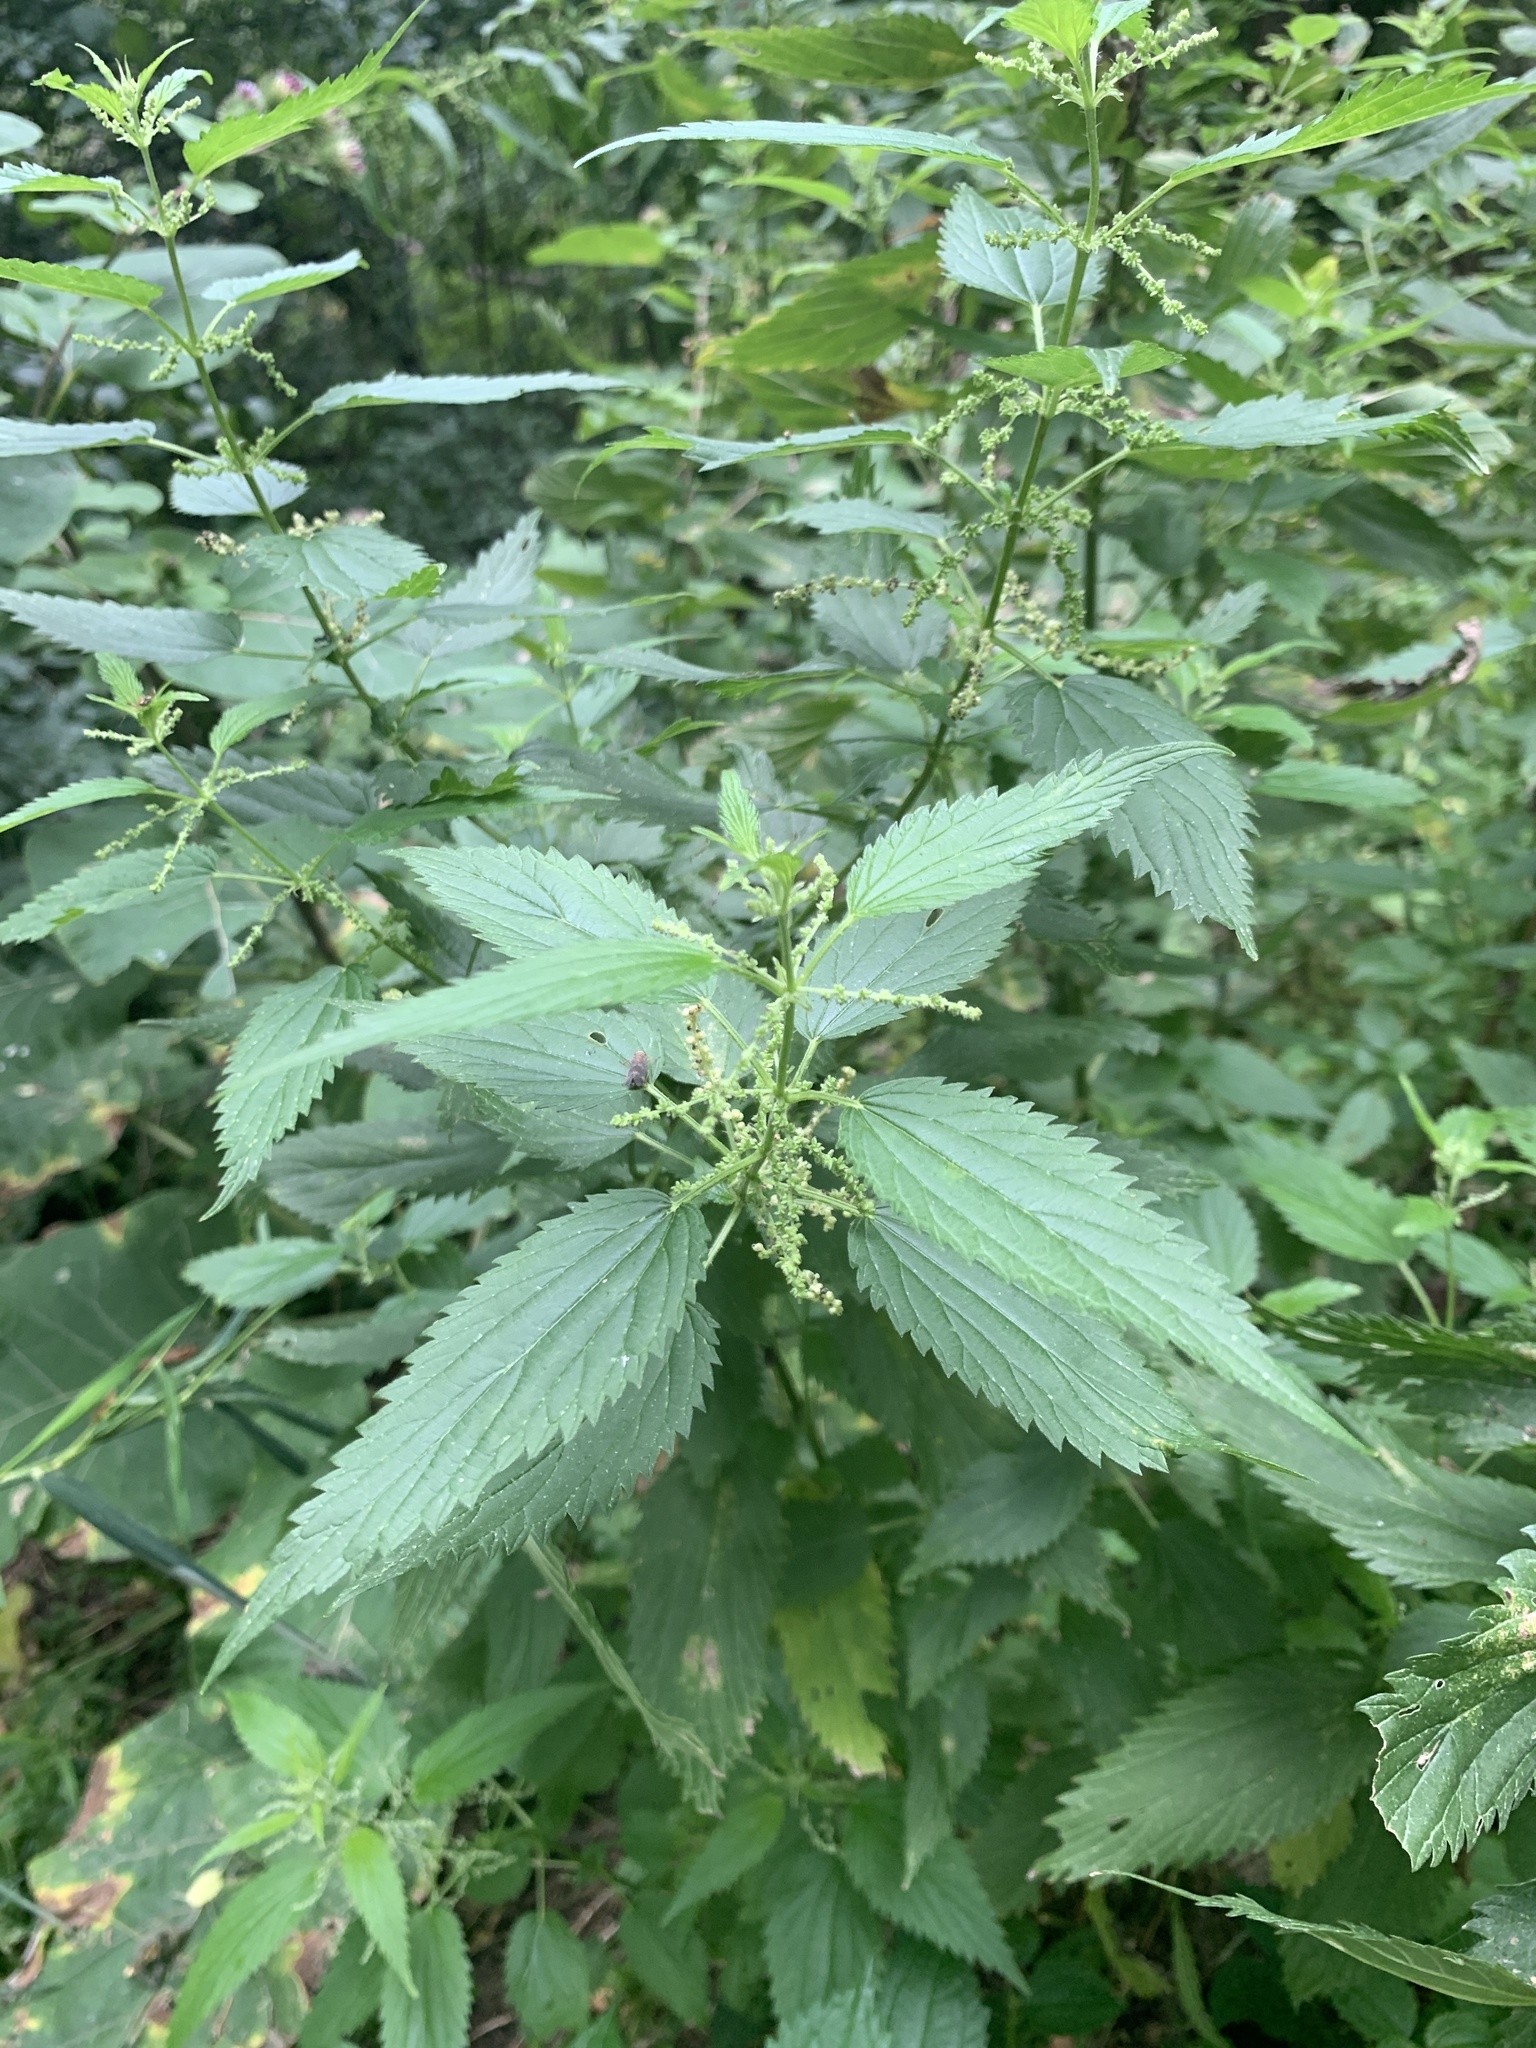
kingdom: Plantae
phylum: Tracheophyta
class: Magnoliopsida
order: Rosales
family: Urticaceae
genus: Urtica
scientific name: Urtica dioica
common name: Common nettle
